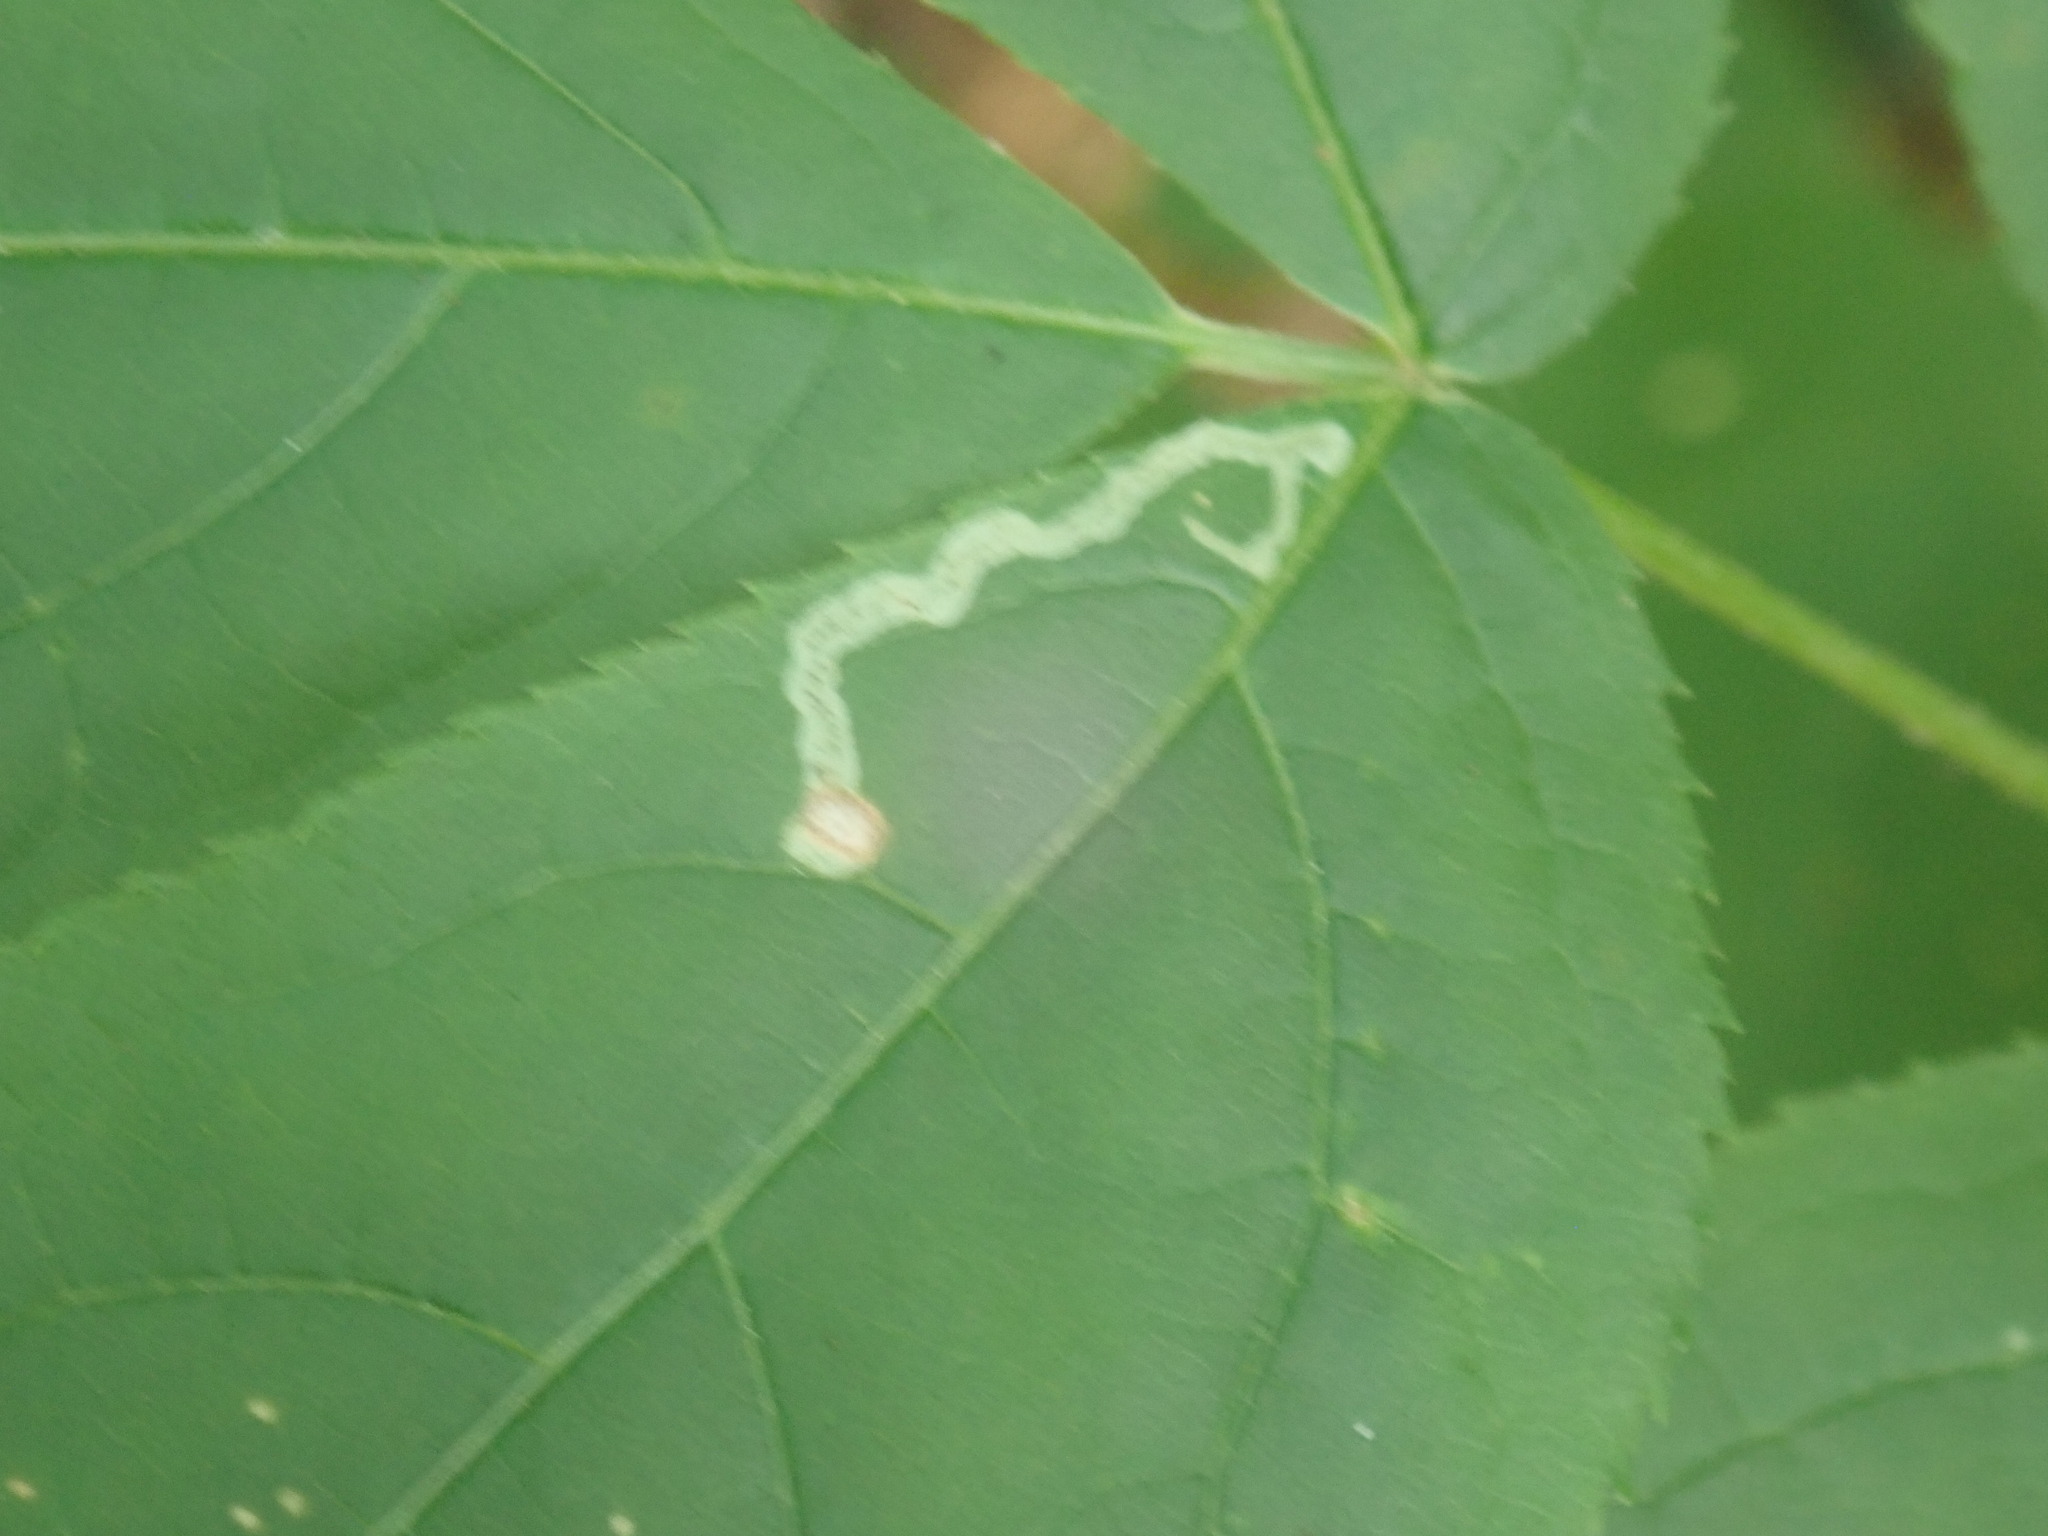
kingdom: Animalia
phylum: Arthropoda
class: Insecta
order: Diptera
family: Agromyzidae
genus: Phytomyza
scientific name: Phytomyza aralivora
